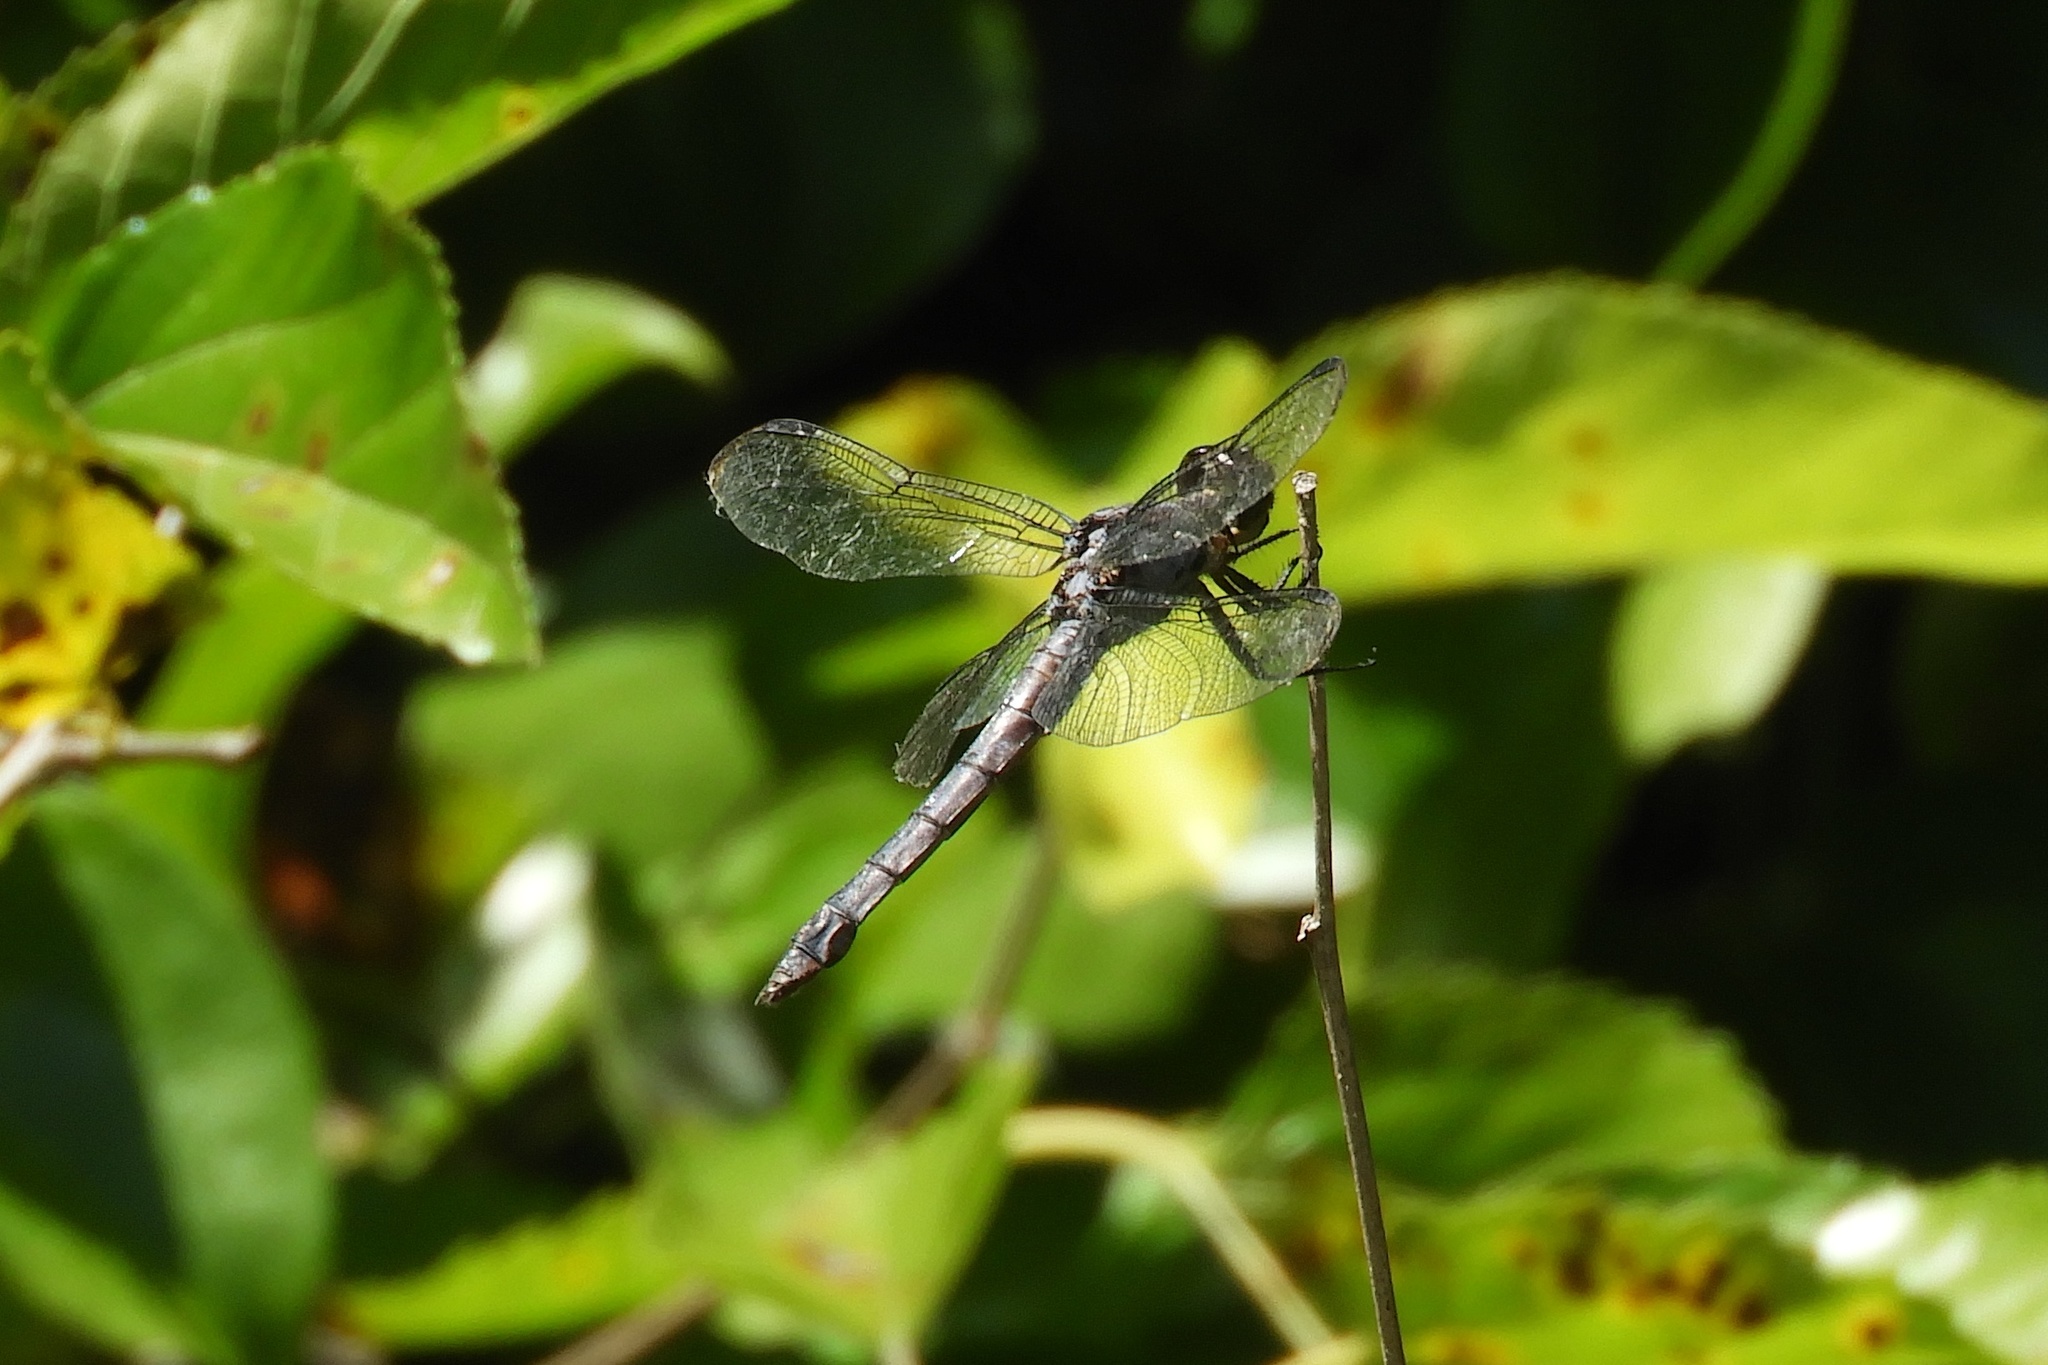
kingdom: Animalia
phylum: Arthropoda
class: Insecta
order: Odonata
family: Libellulidae
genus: Libellula
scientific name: Libellula incesta
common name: Slaty skimmer
